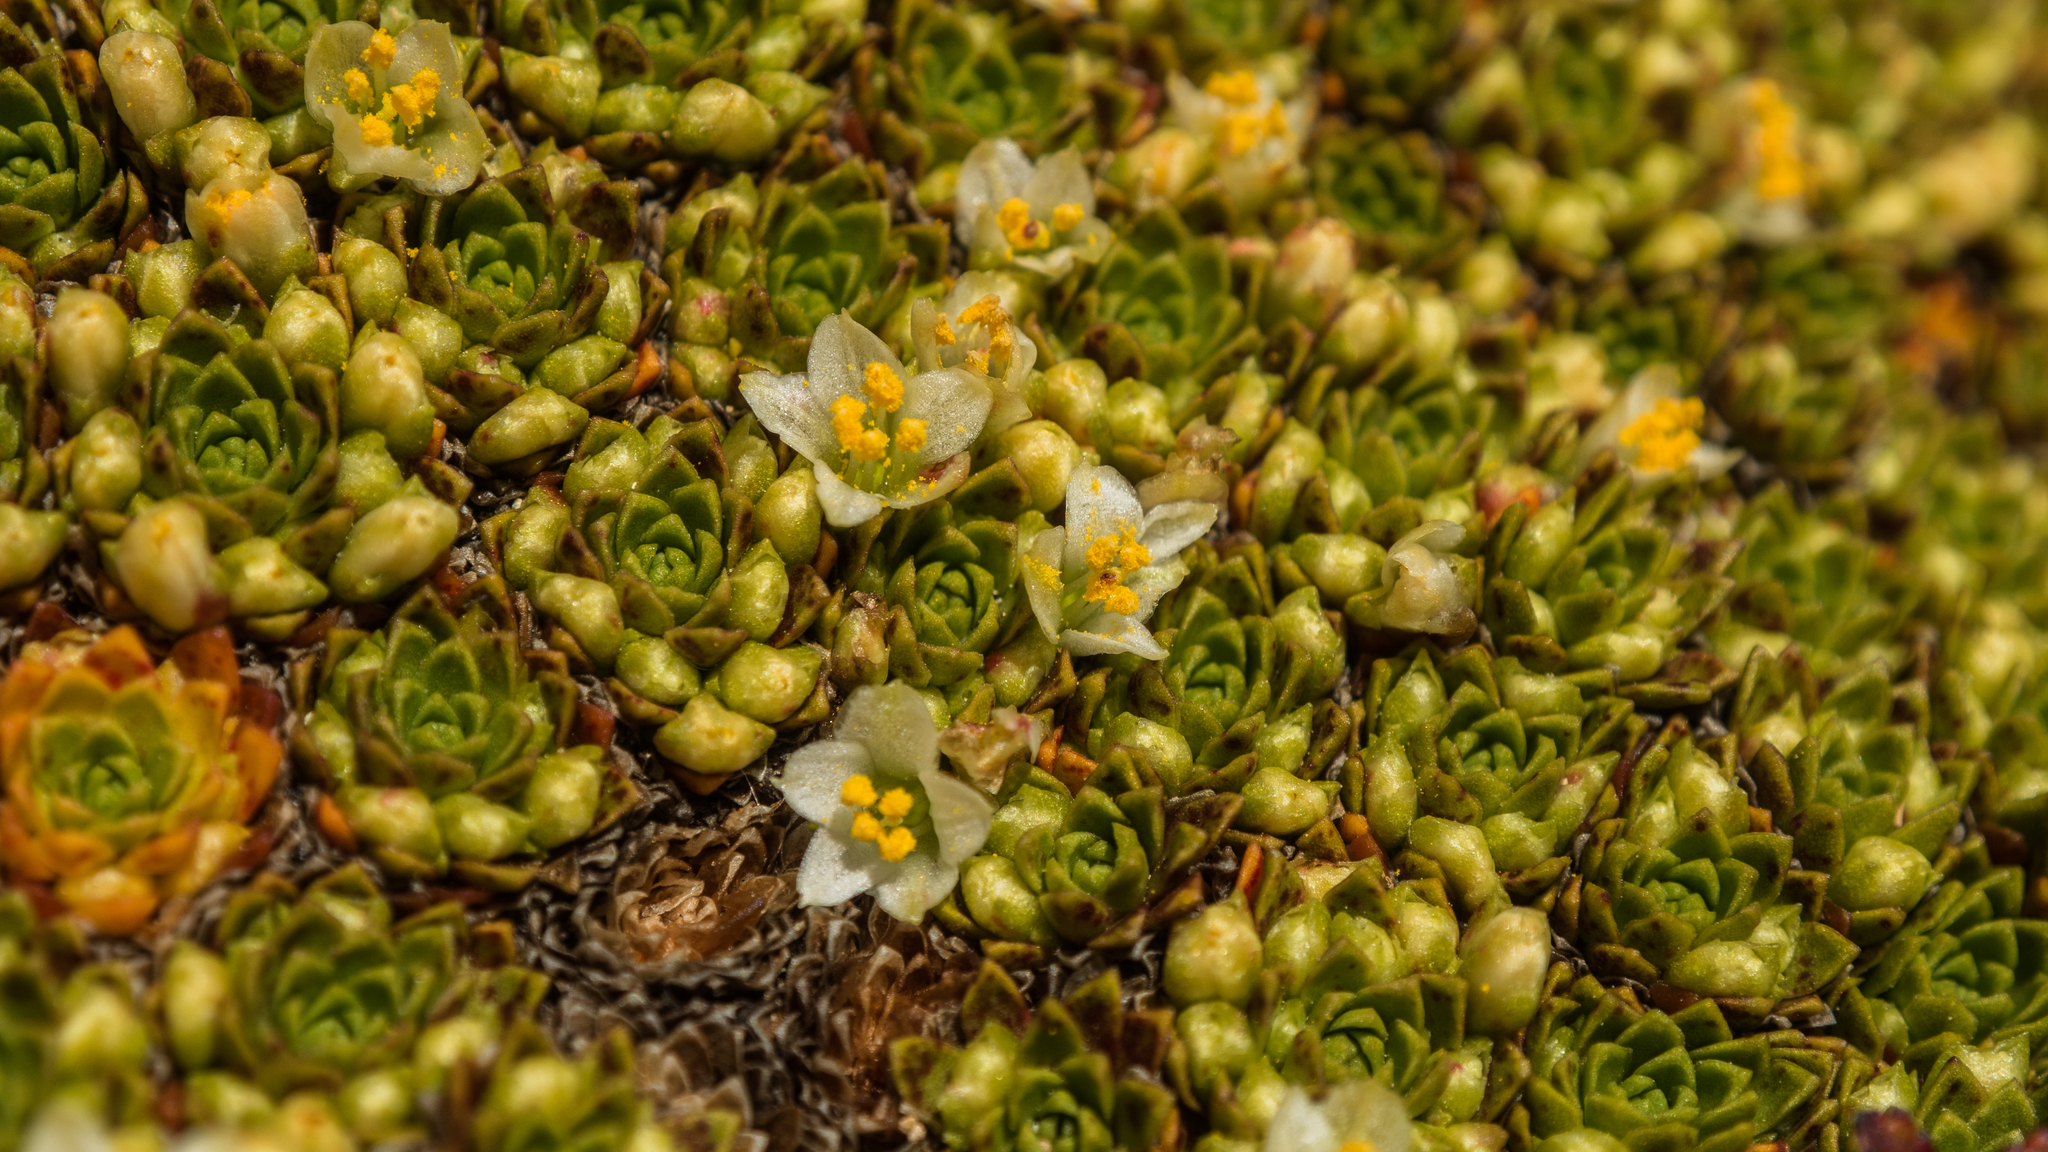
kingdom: Plantae
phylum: Tracheophyta
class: Magnoliopsida
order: Caryophyllales
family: Montiaceae
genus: Hectorella
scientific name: Hectorella caespitosa
